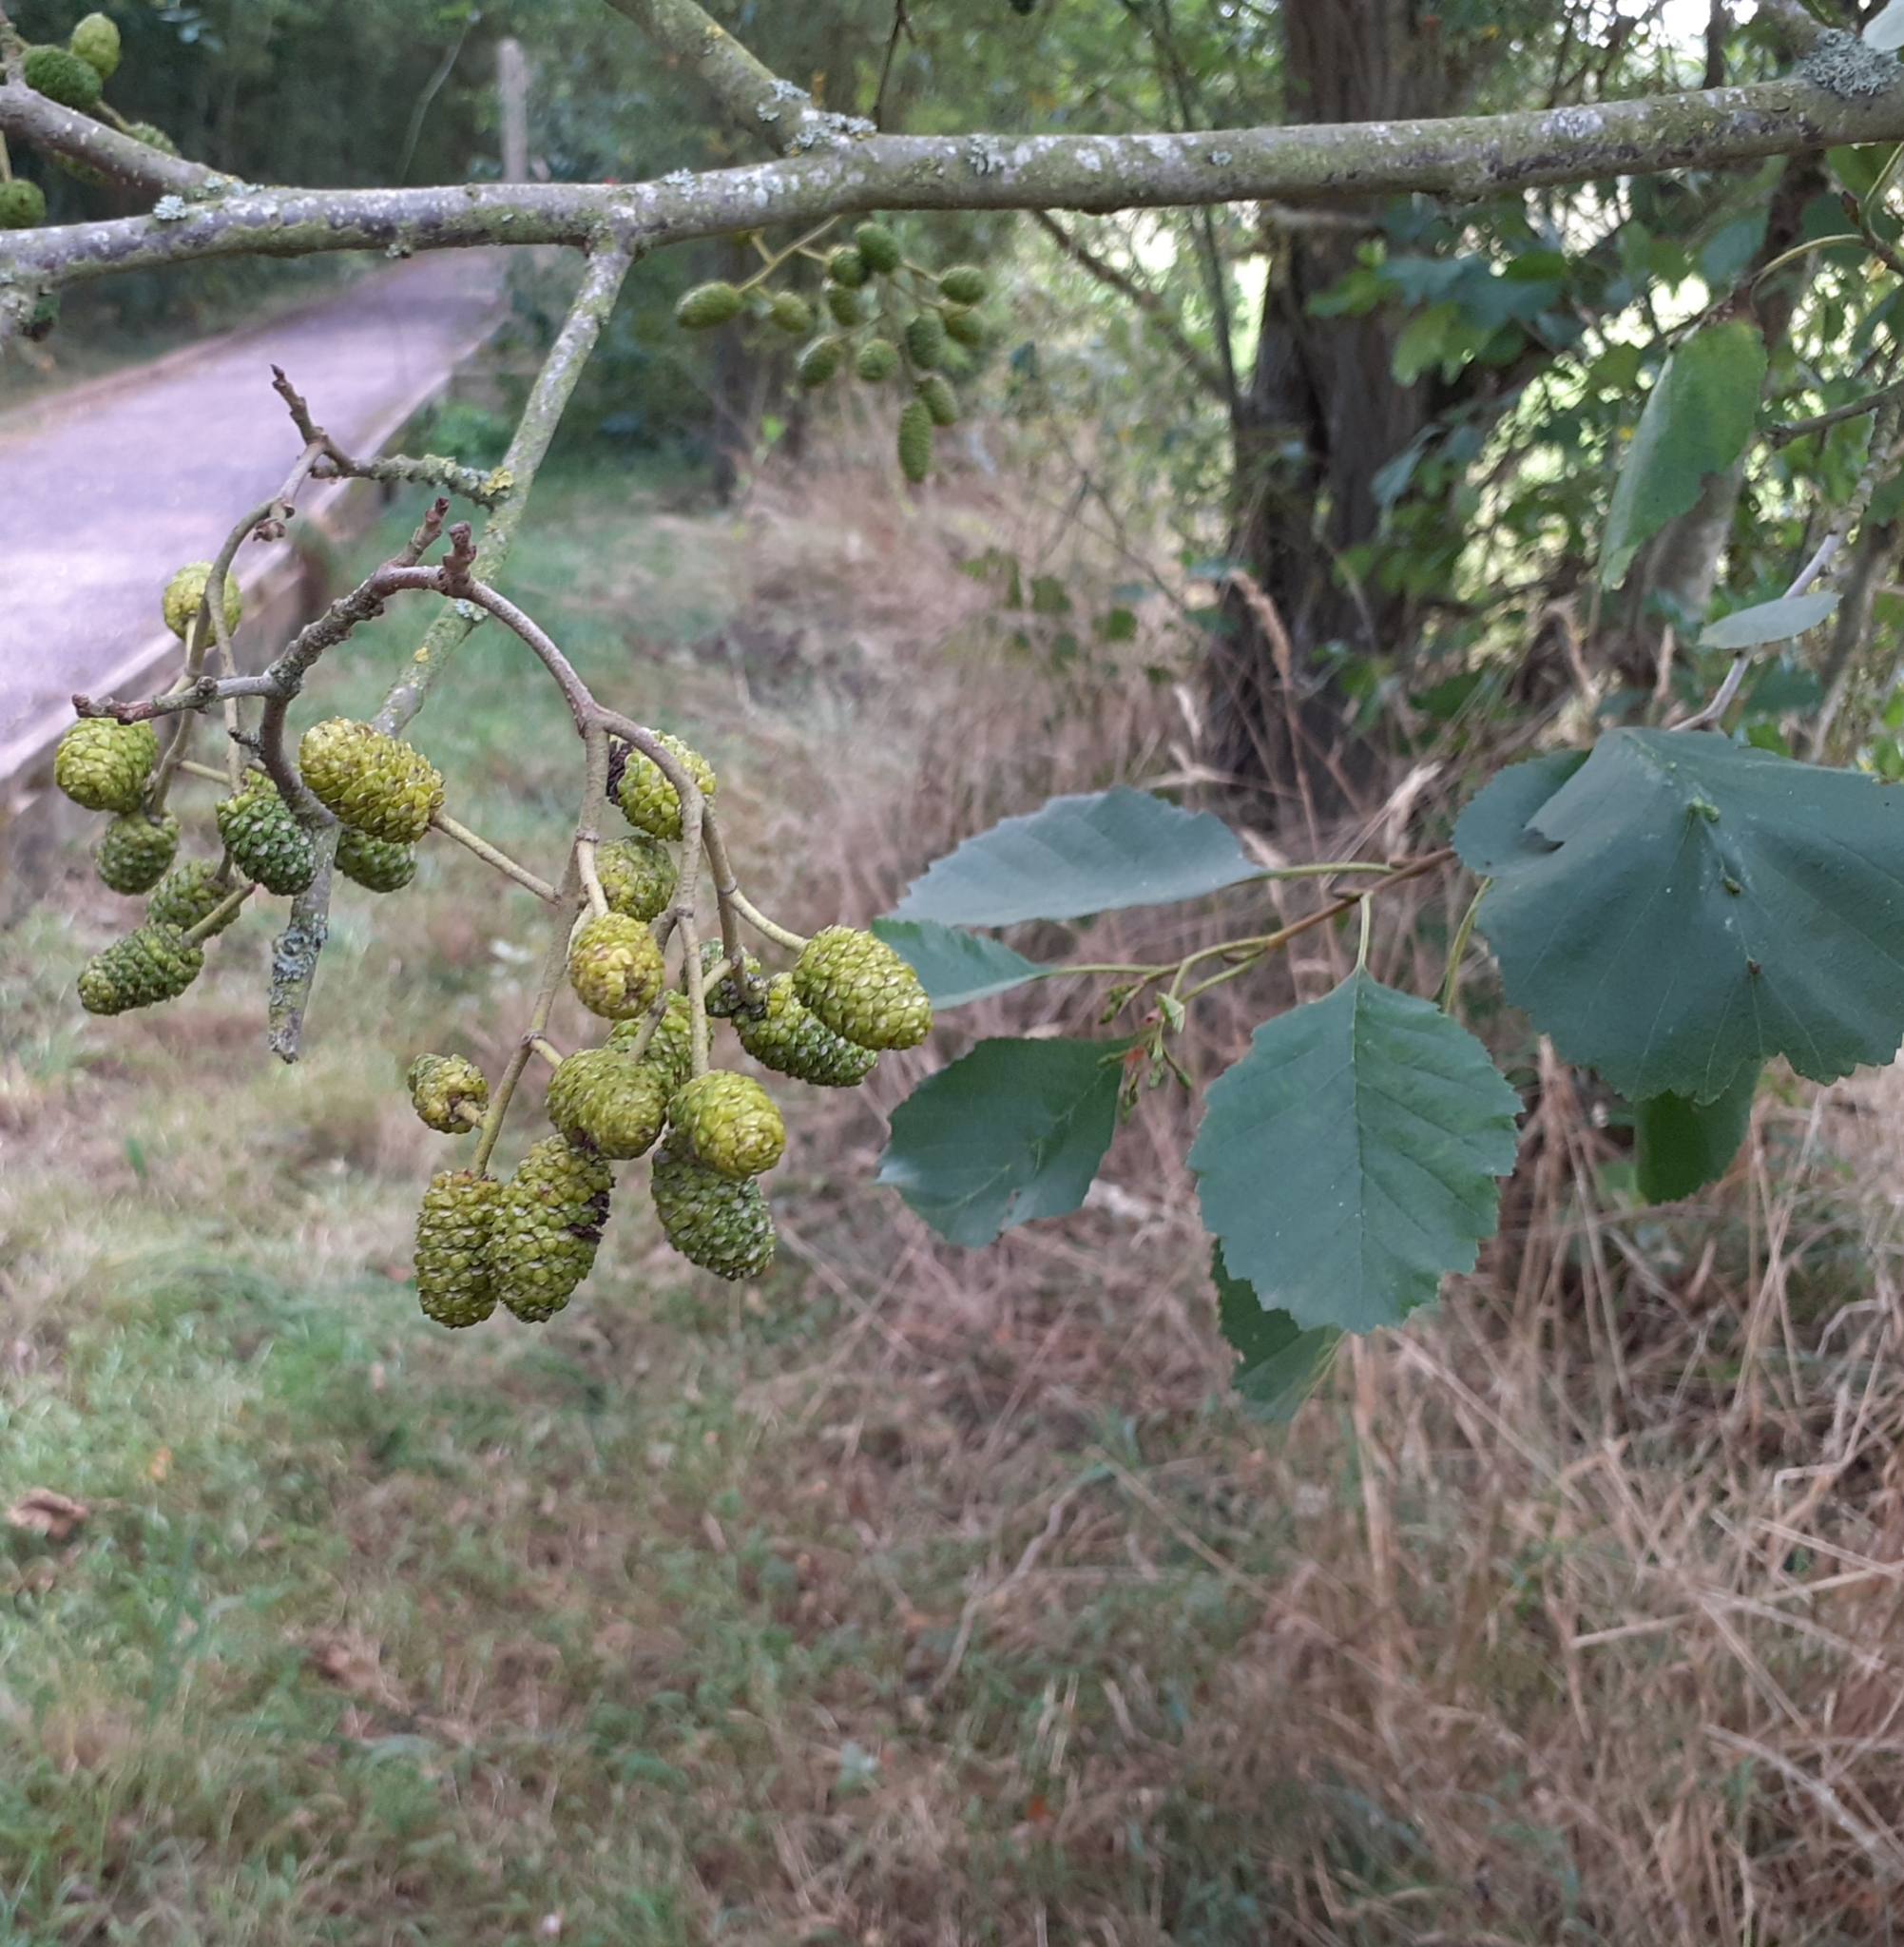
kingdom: Plantae
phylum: Tracheophyta
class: Magnoliopsida
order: Fagales
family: Betulaceae
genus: Alnus
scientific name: Alnus glutinosa
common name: Black alder
